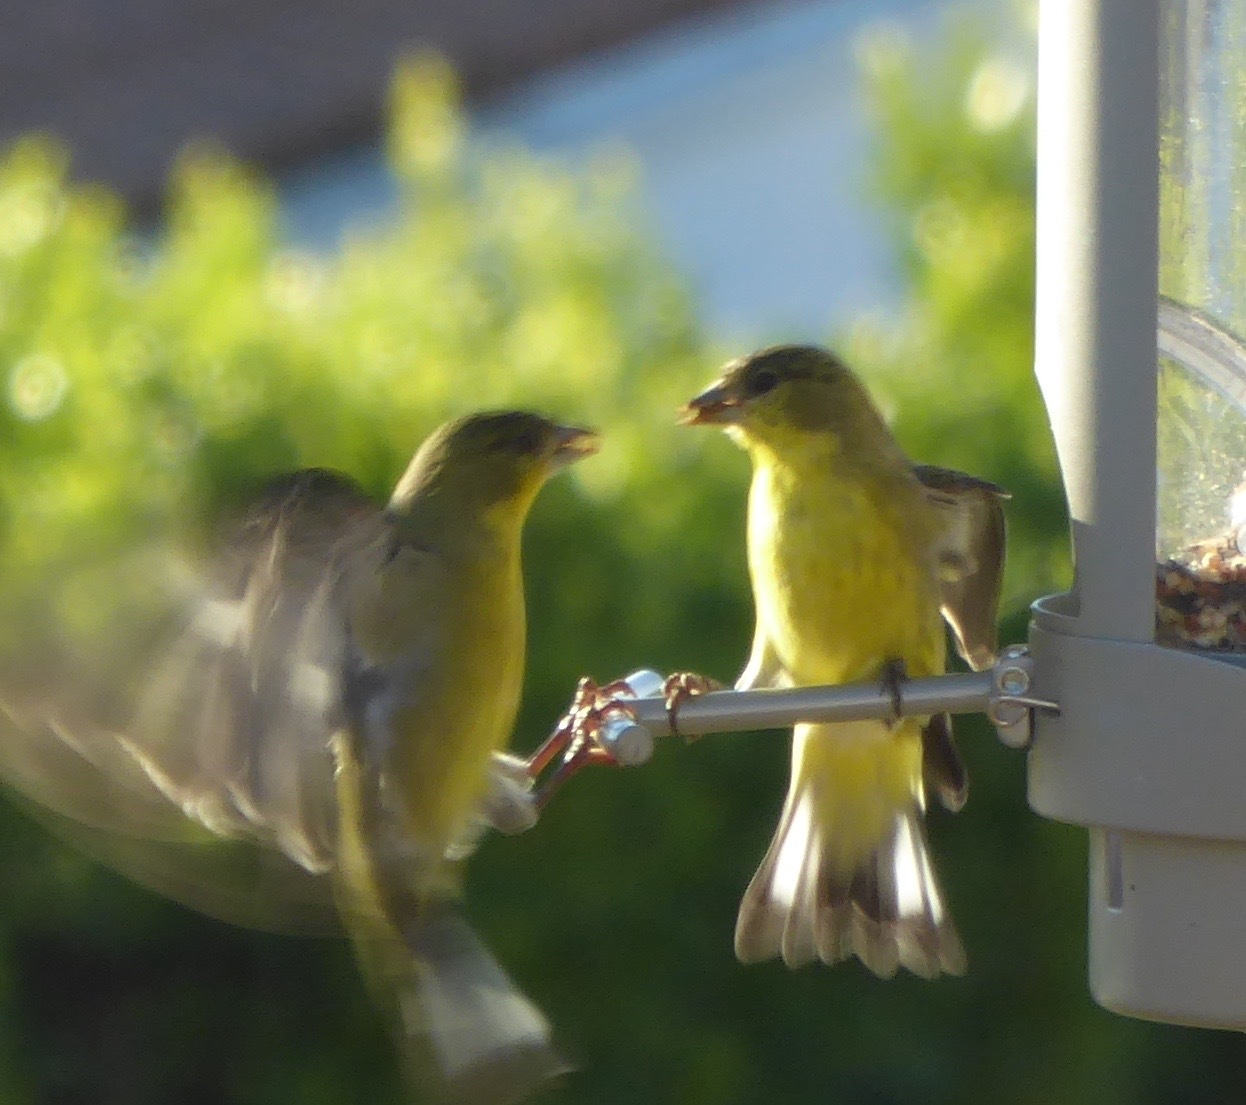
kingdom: Animalia
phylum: Chordata
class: Aves
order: Passeriformes
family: Fringillidae
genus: Spinus
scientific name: Spinus psaltria
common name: Lesser goldfinch
